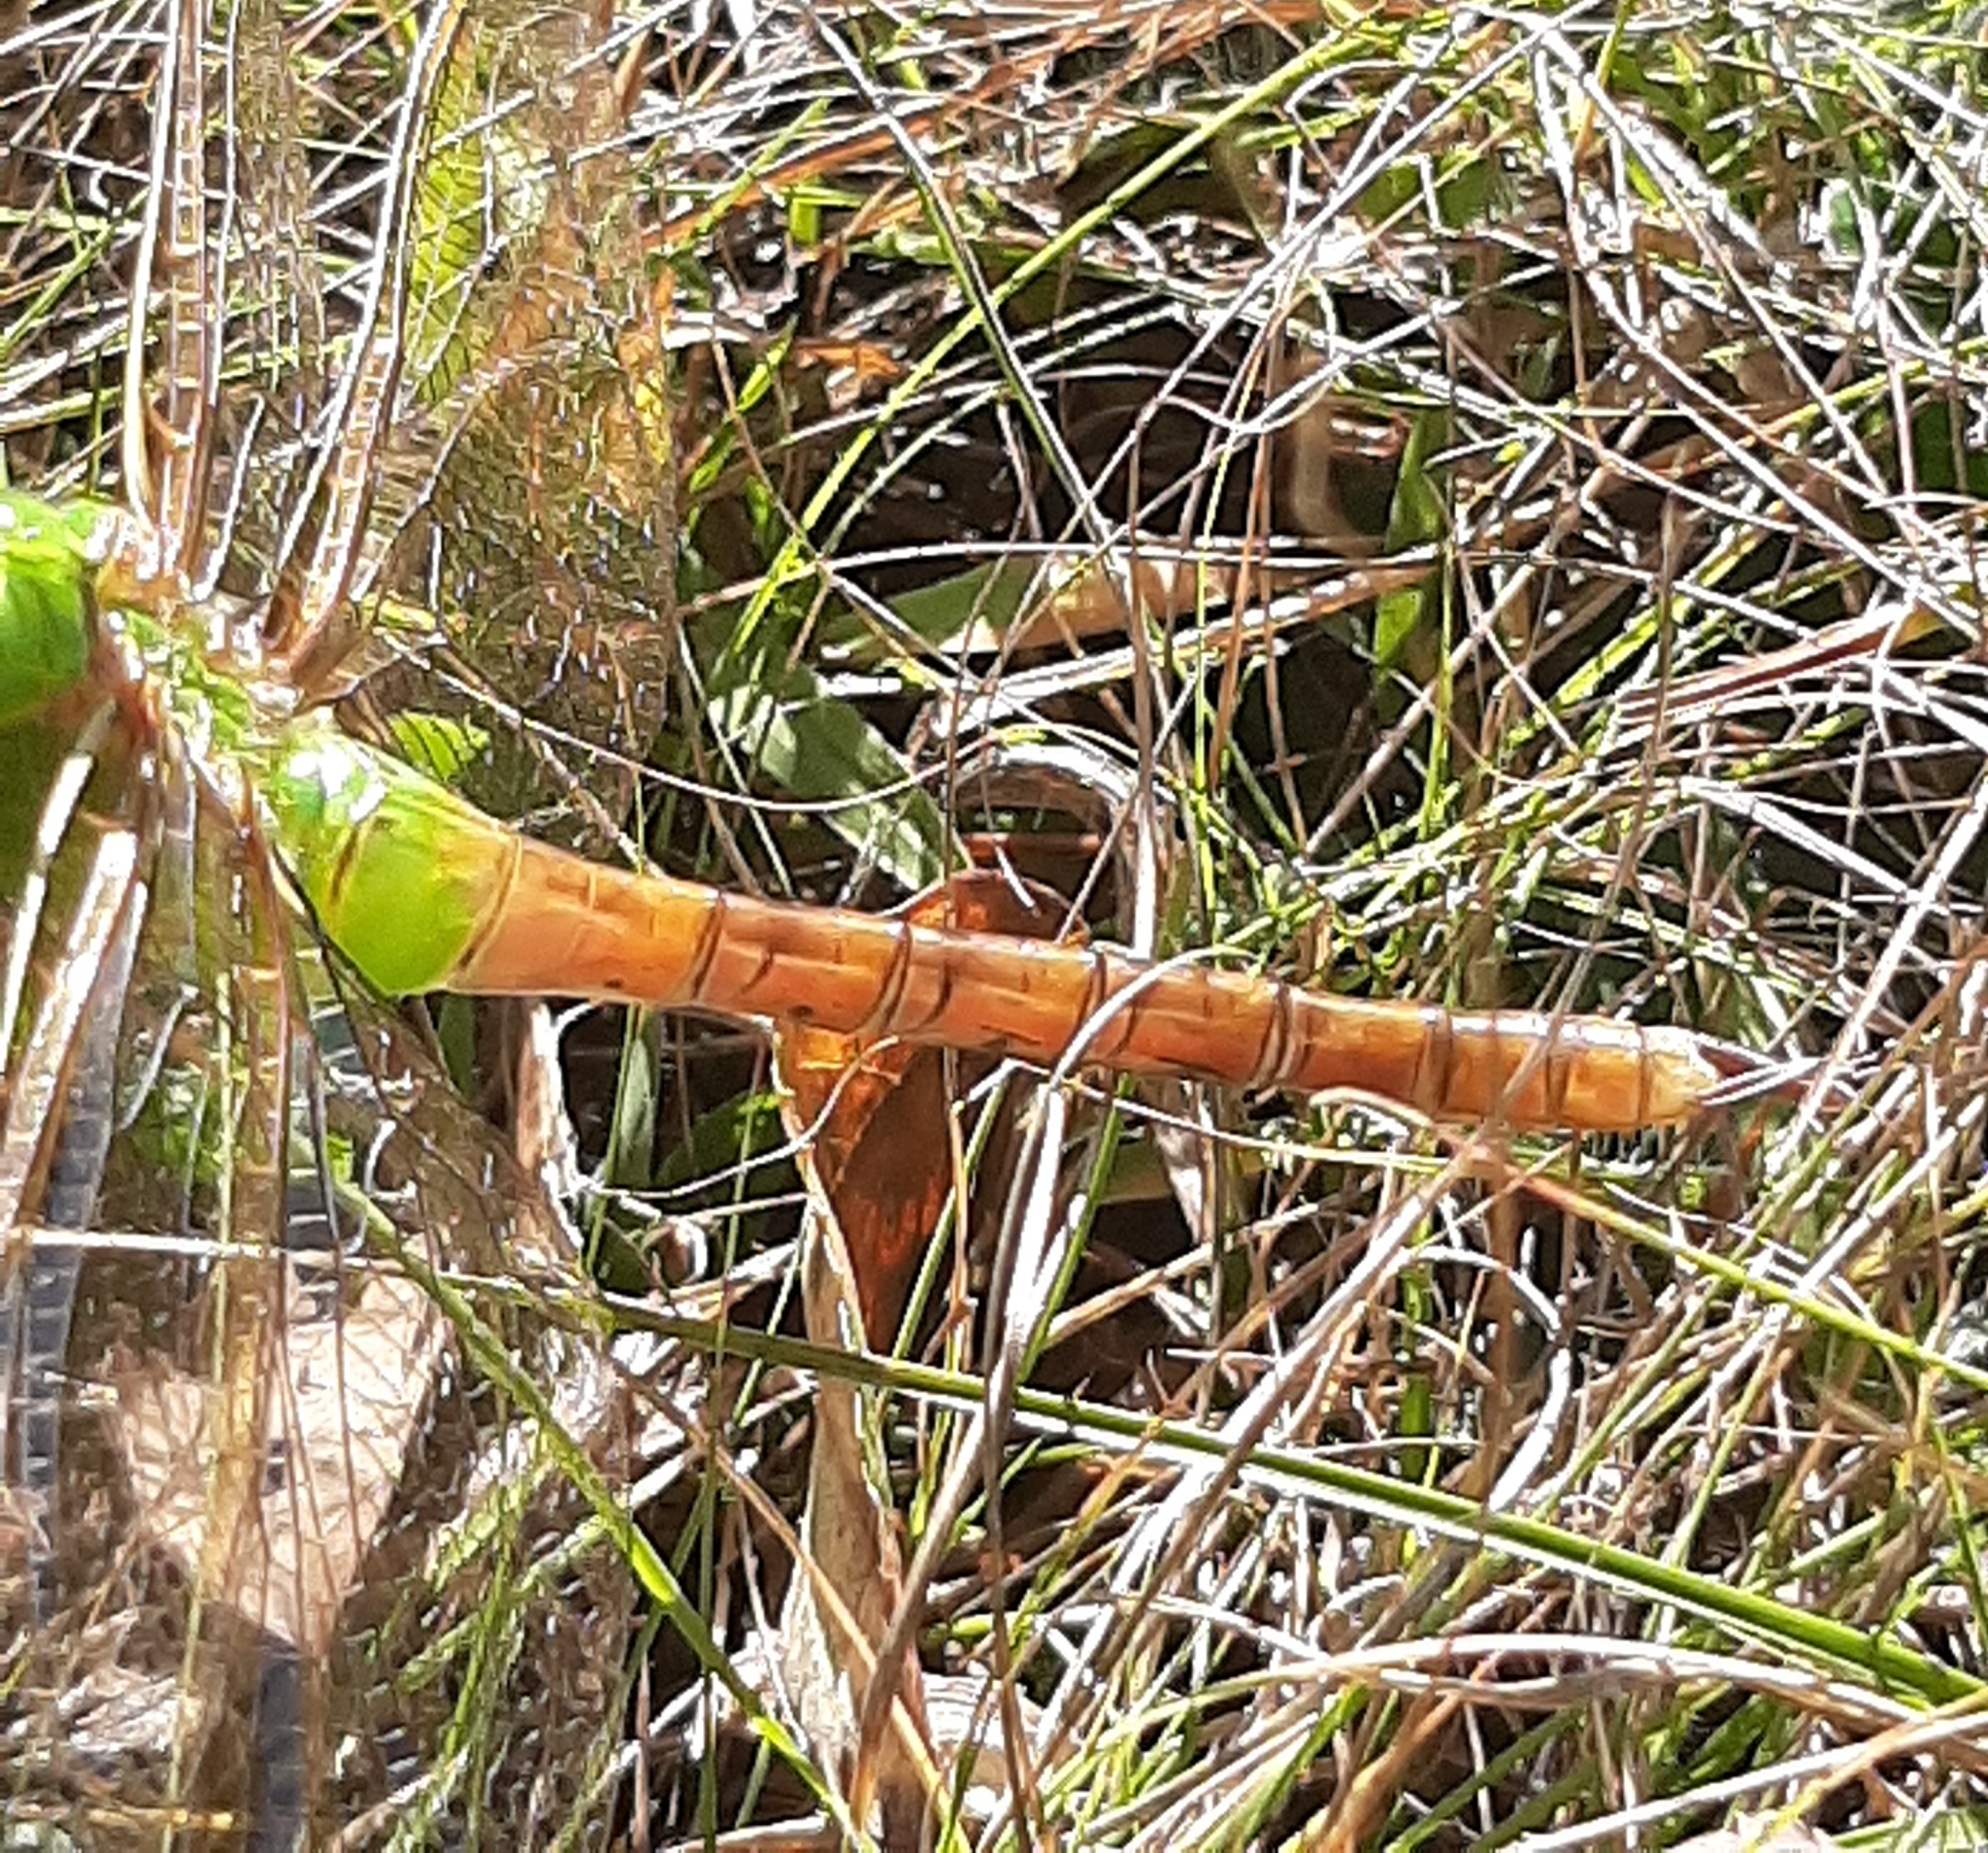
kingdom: Animalia
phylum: Arthropoda
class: Insecta
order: Odonata
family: Aeshnidae
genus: Anax
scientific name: Anax junius
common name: Common green darner
